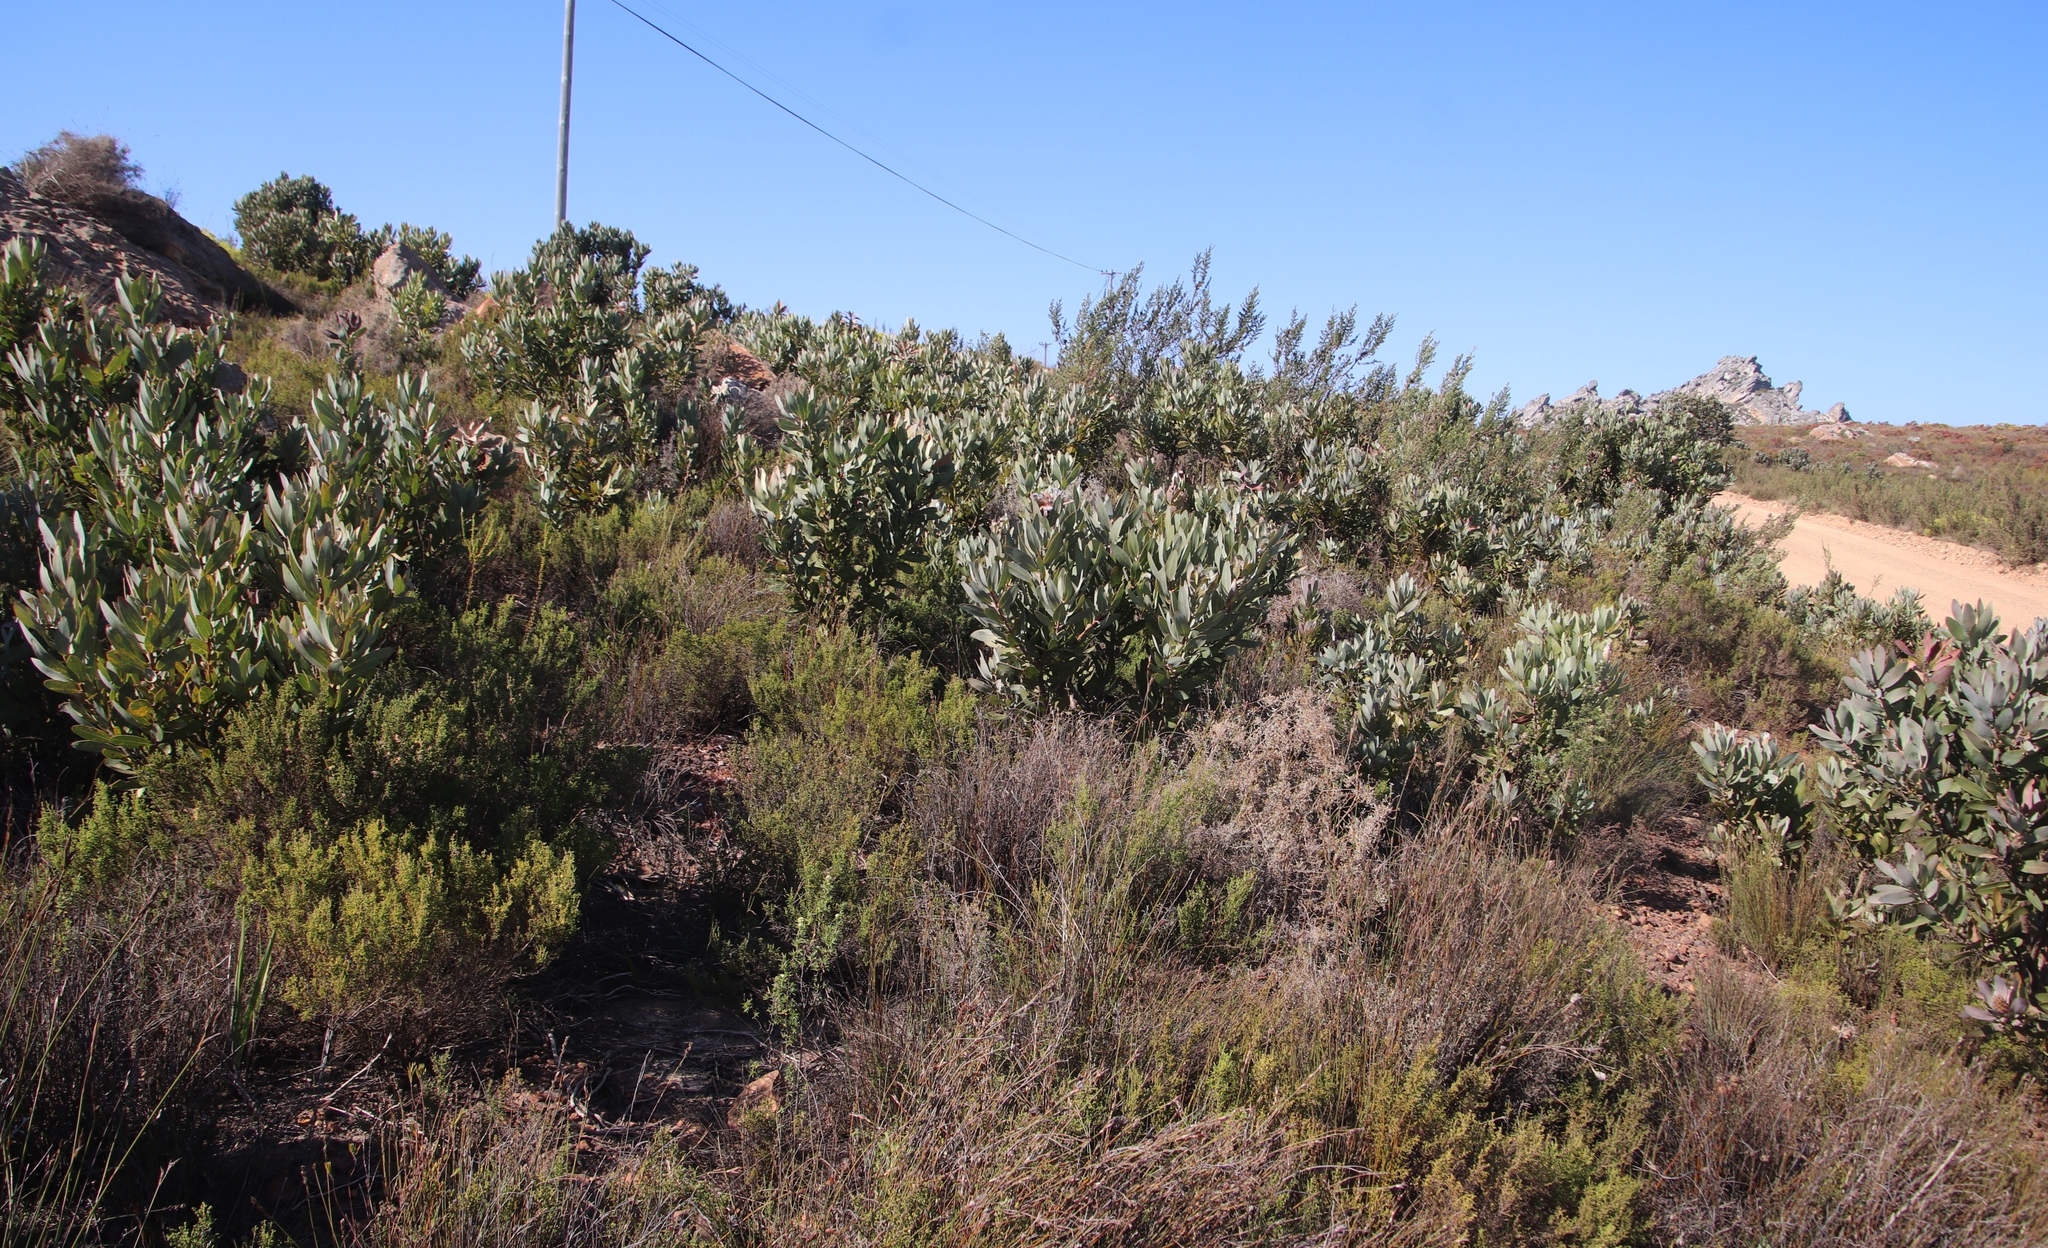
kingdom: Plantae
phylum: Tracheophyta
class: Magnoliopsida
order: Proteales
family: Proteaceae
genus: Protea
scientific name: Protea laurifolia
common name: Grey-leaf sugarbsh
